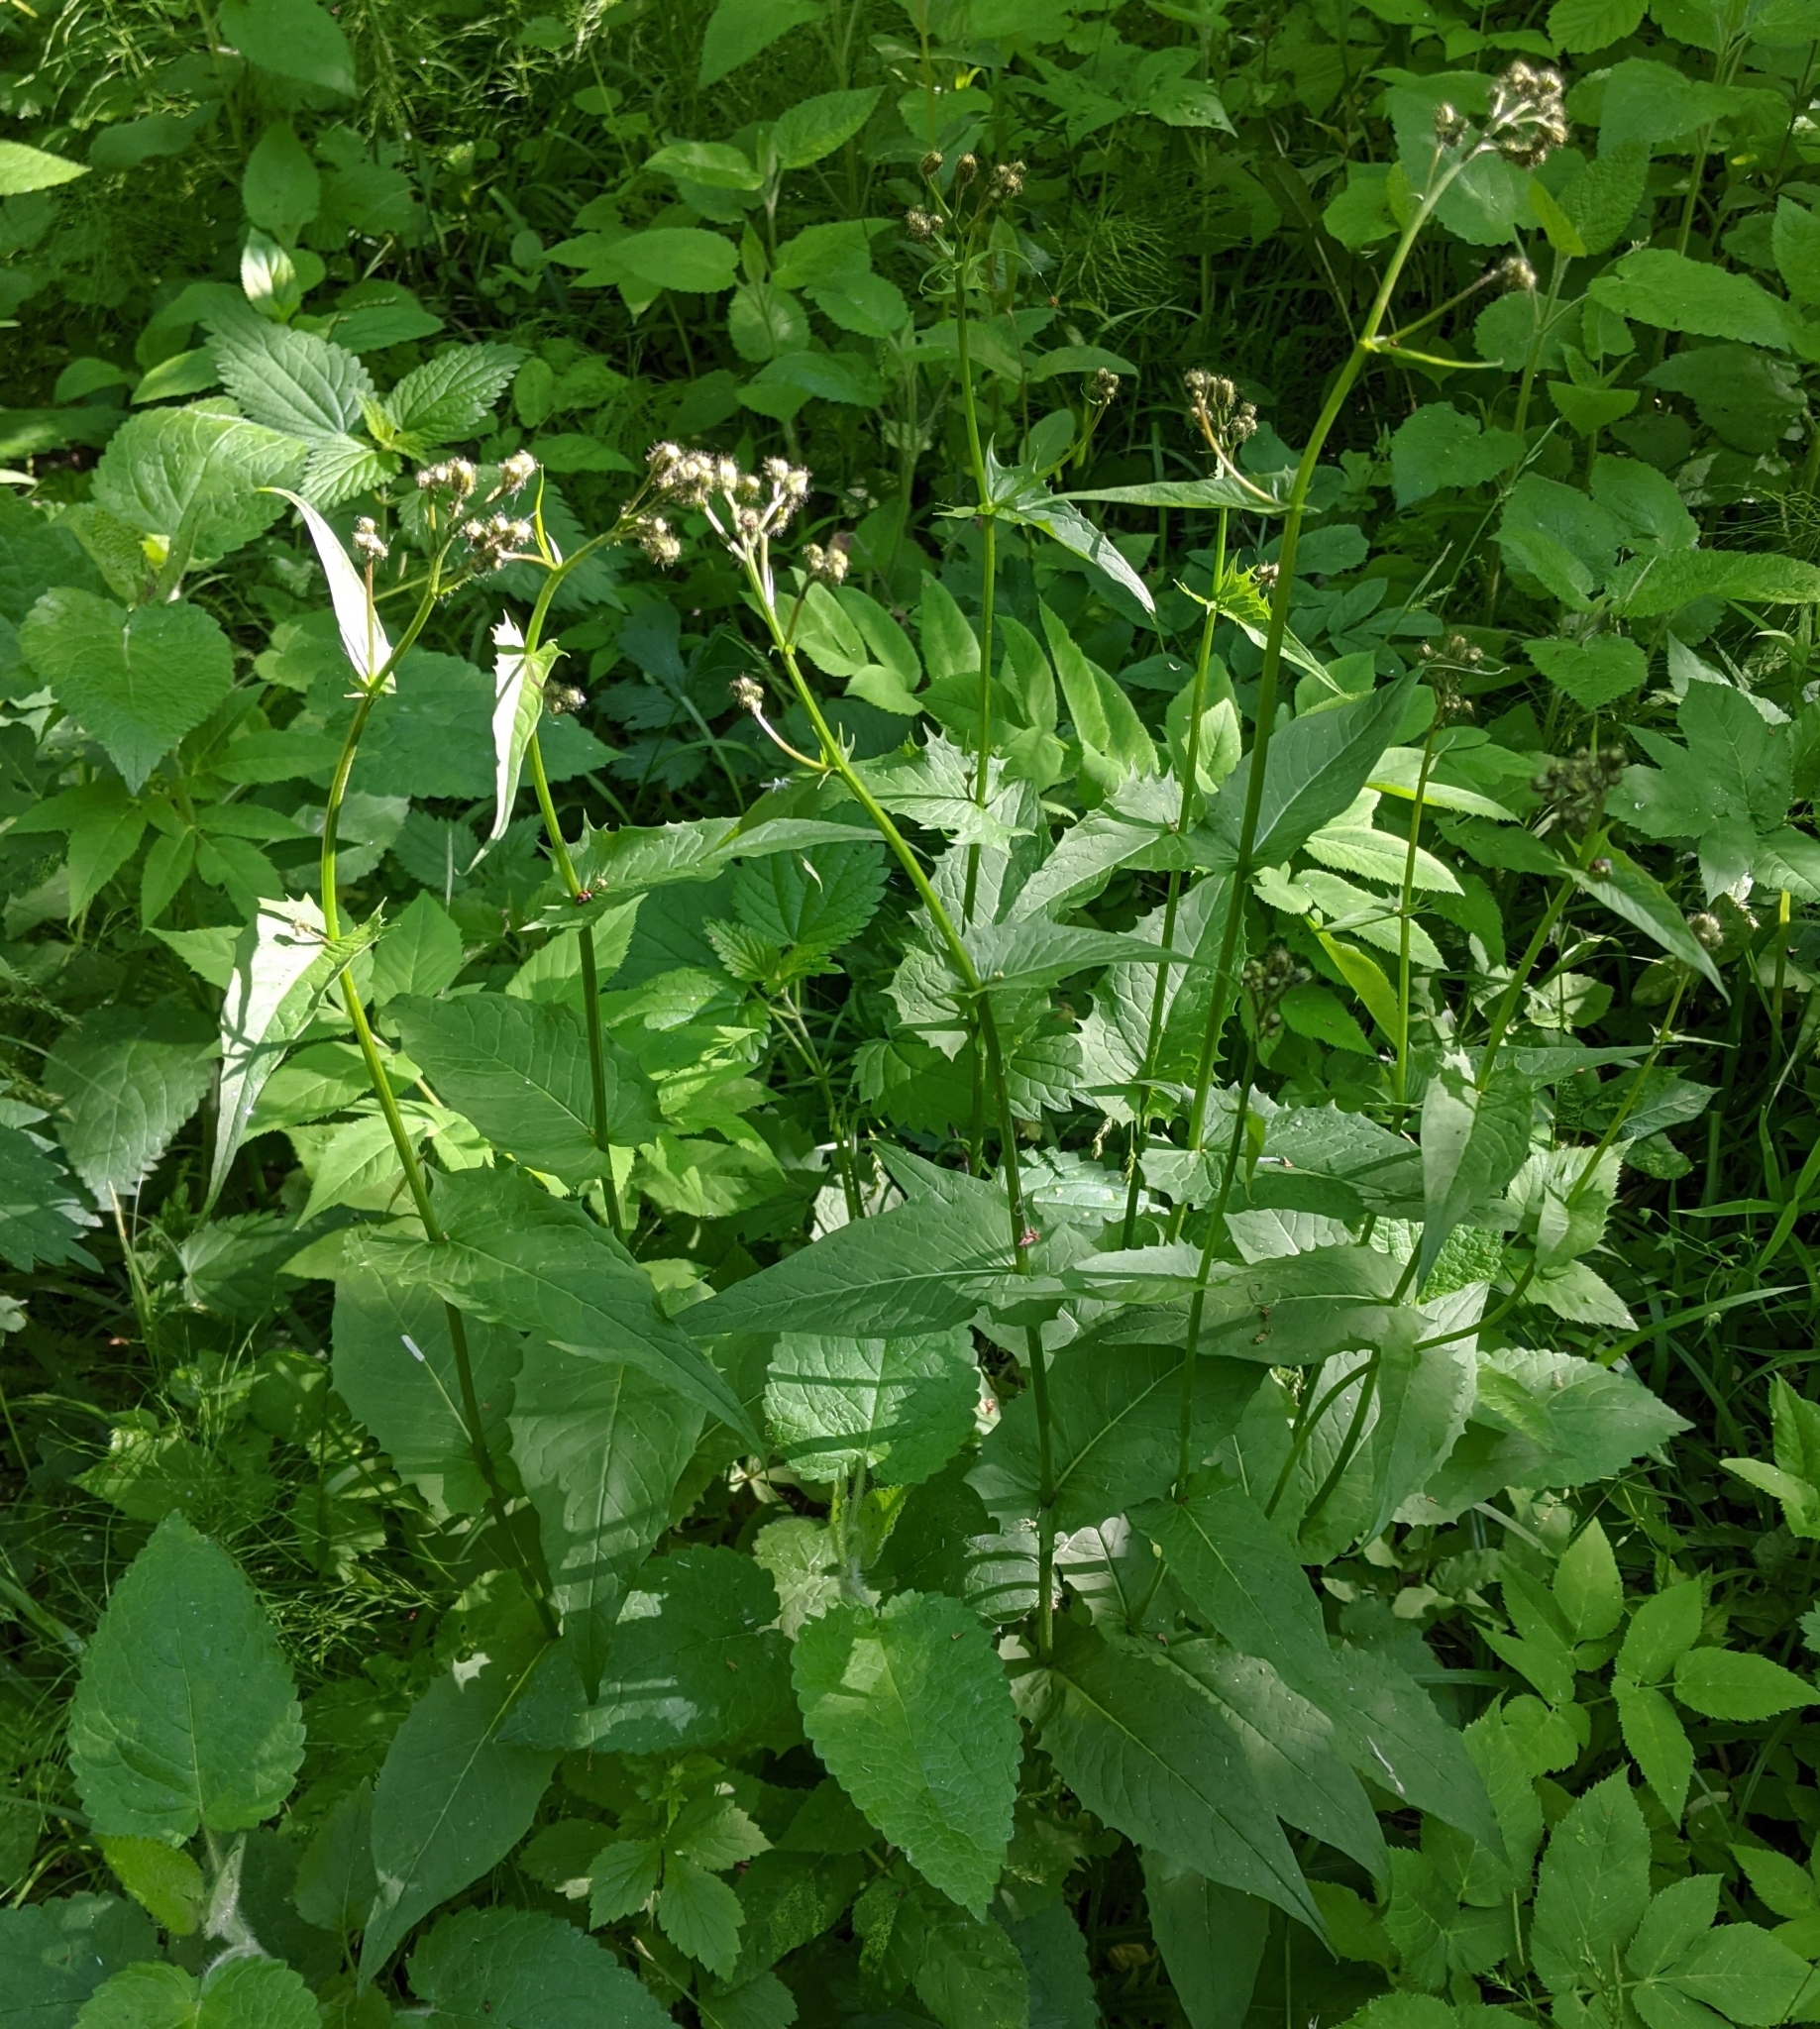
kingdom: Plantae
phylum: Tracheophyta
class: Magnoliopsida
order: Asterales
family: Asteraceae
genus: Crepis
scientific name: Crepis paludosa
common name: Marsh hawk's-beard
